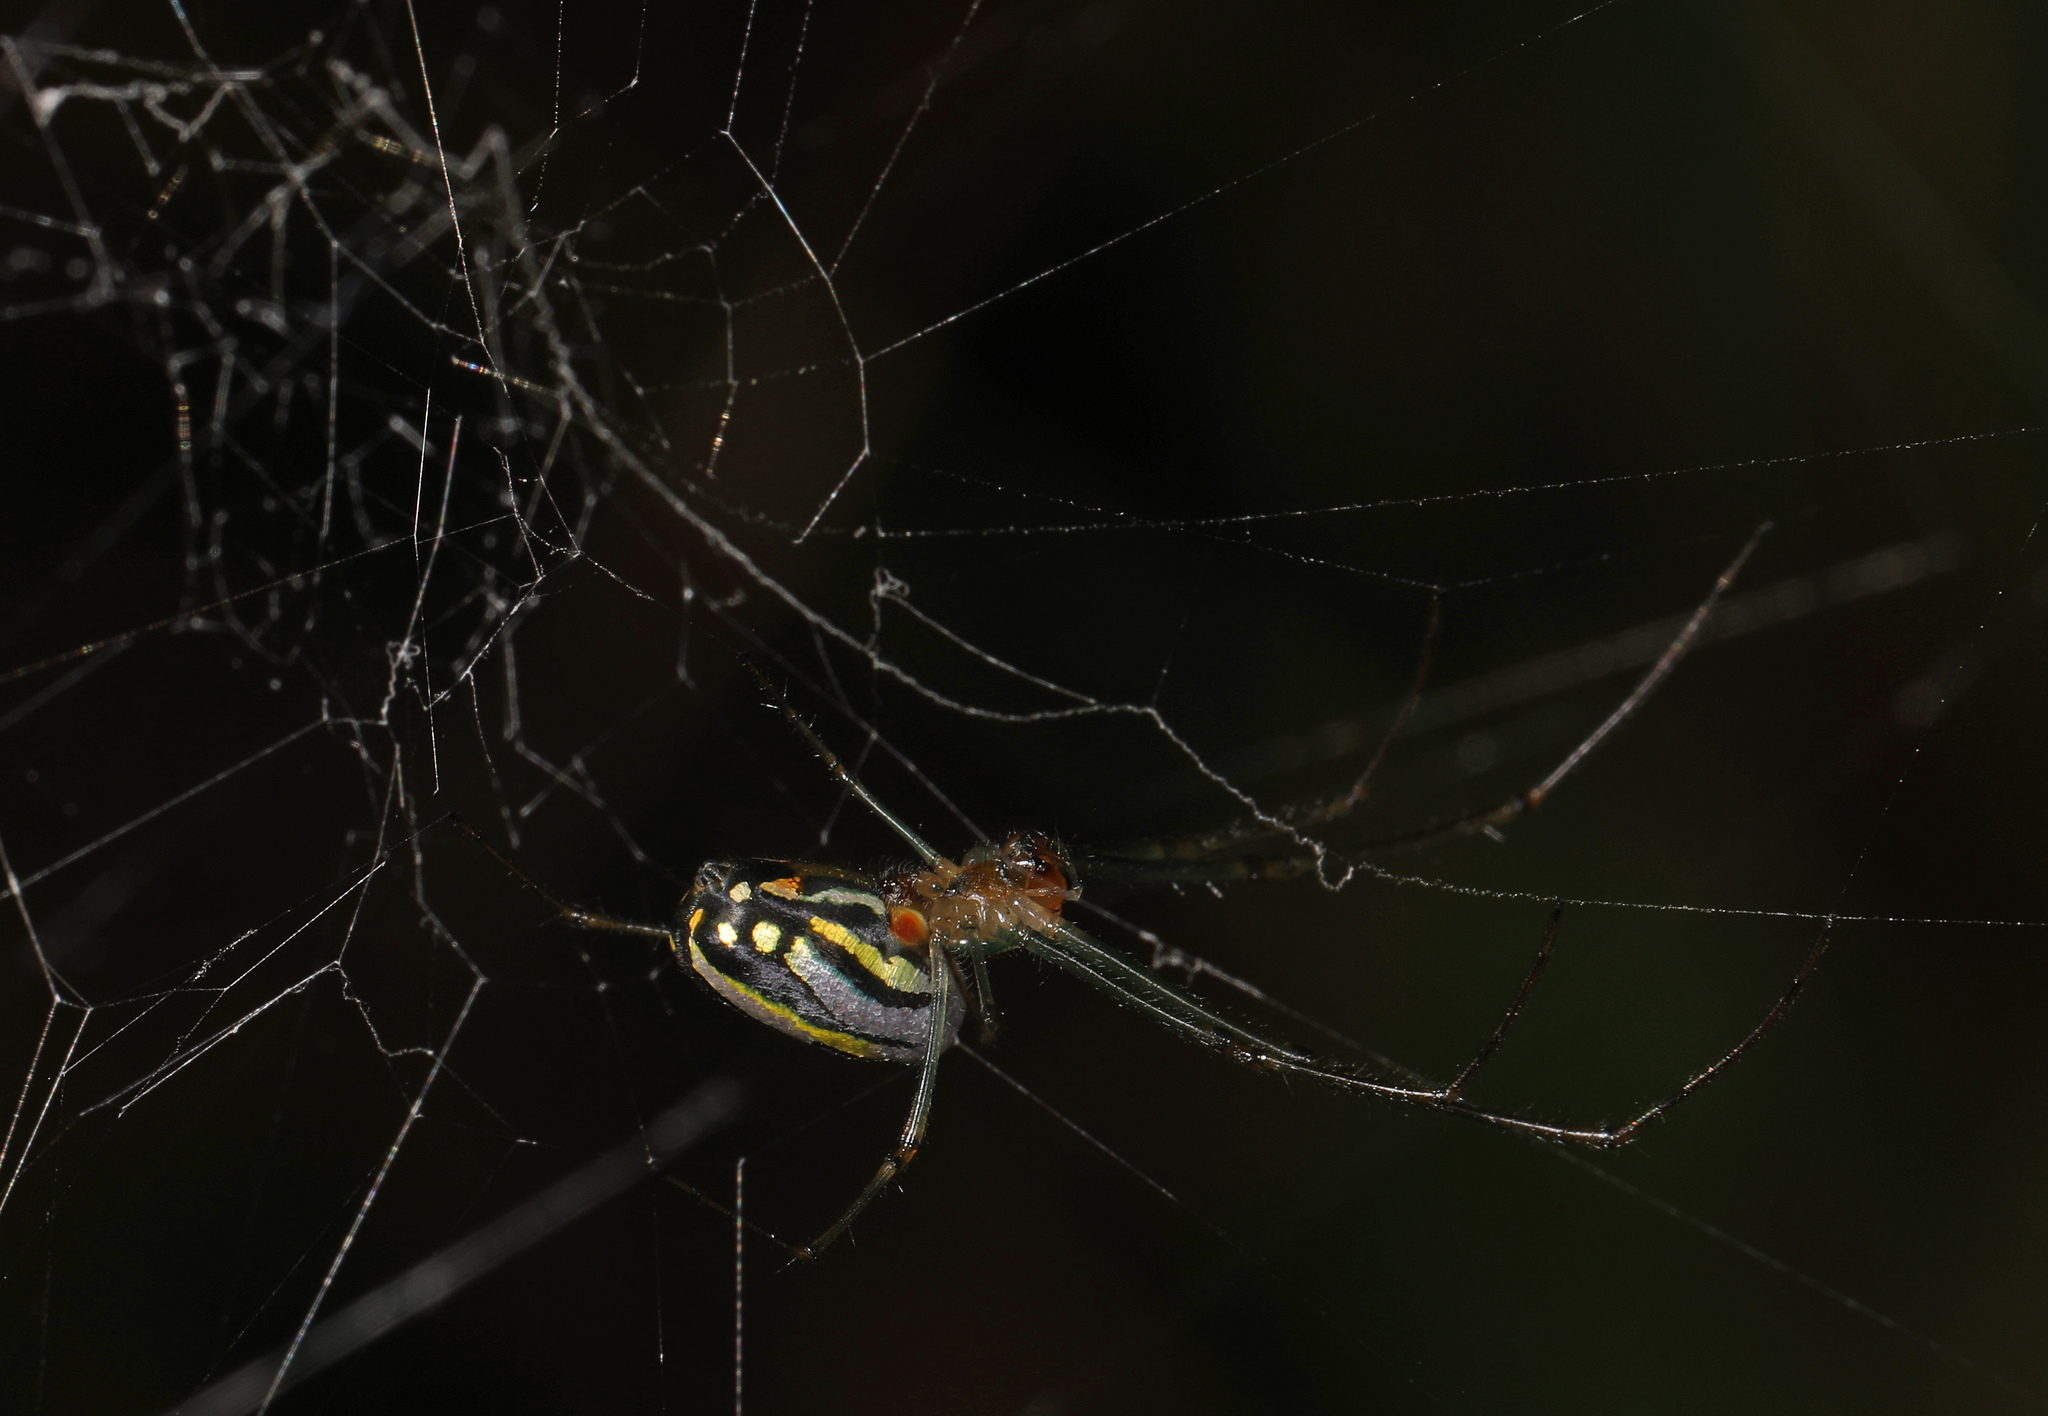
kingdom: Animalia
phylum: Arthropoda
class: Arachnida
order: Araneae
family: Tetragnathidae
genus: Leucauge
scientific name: Leucauge argyra
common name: Longjawed orb weavers
